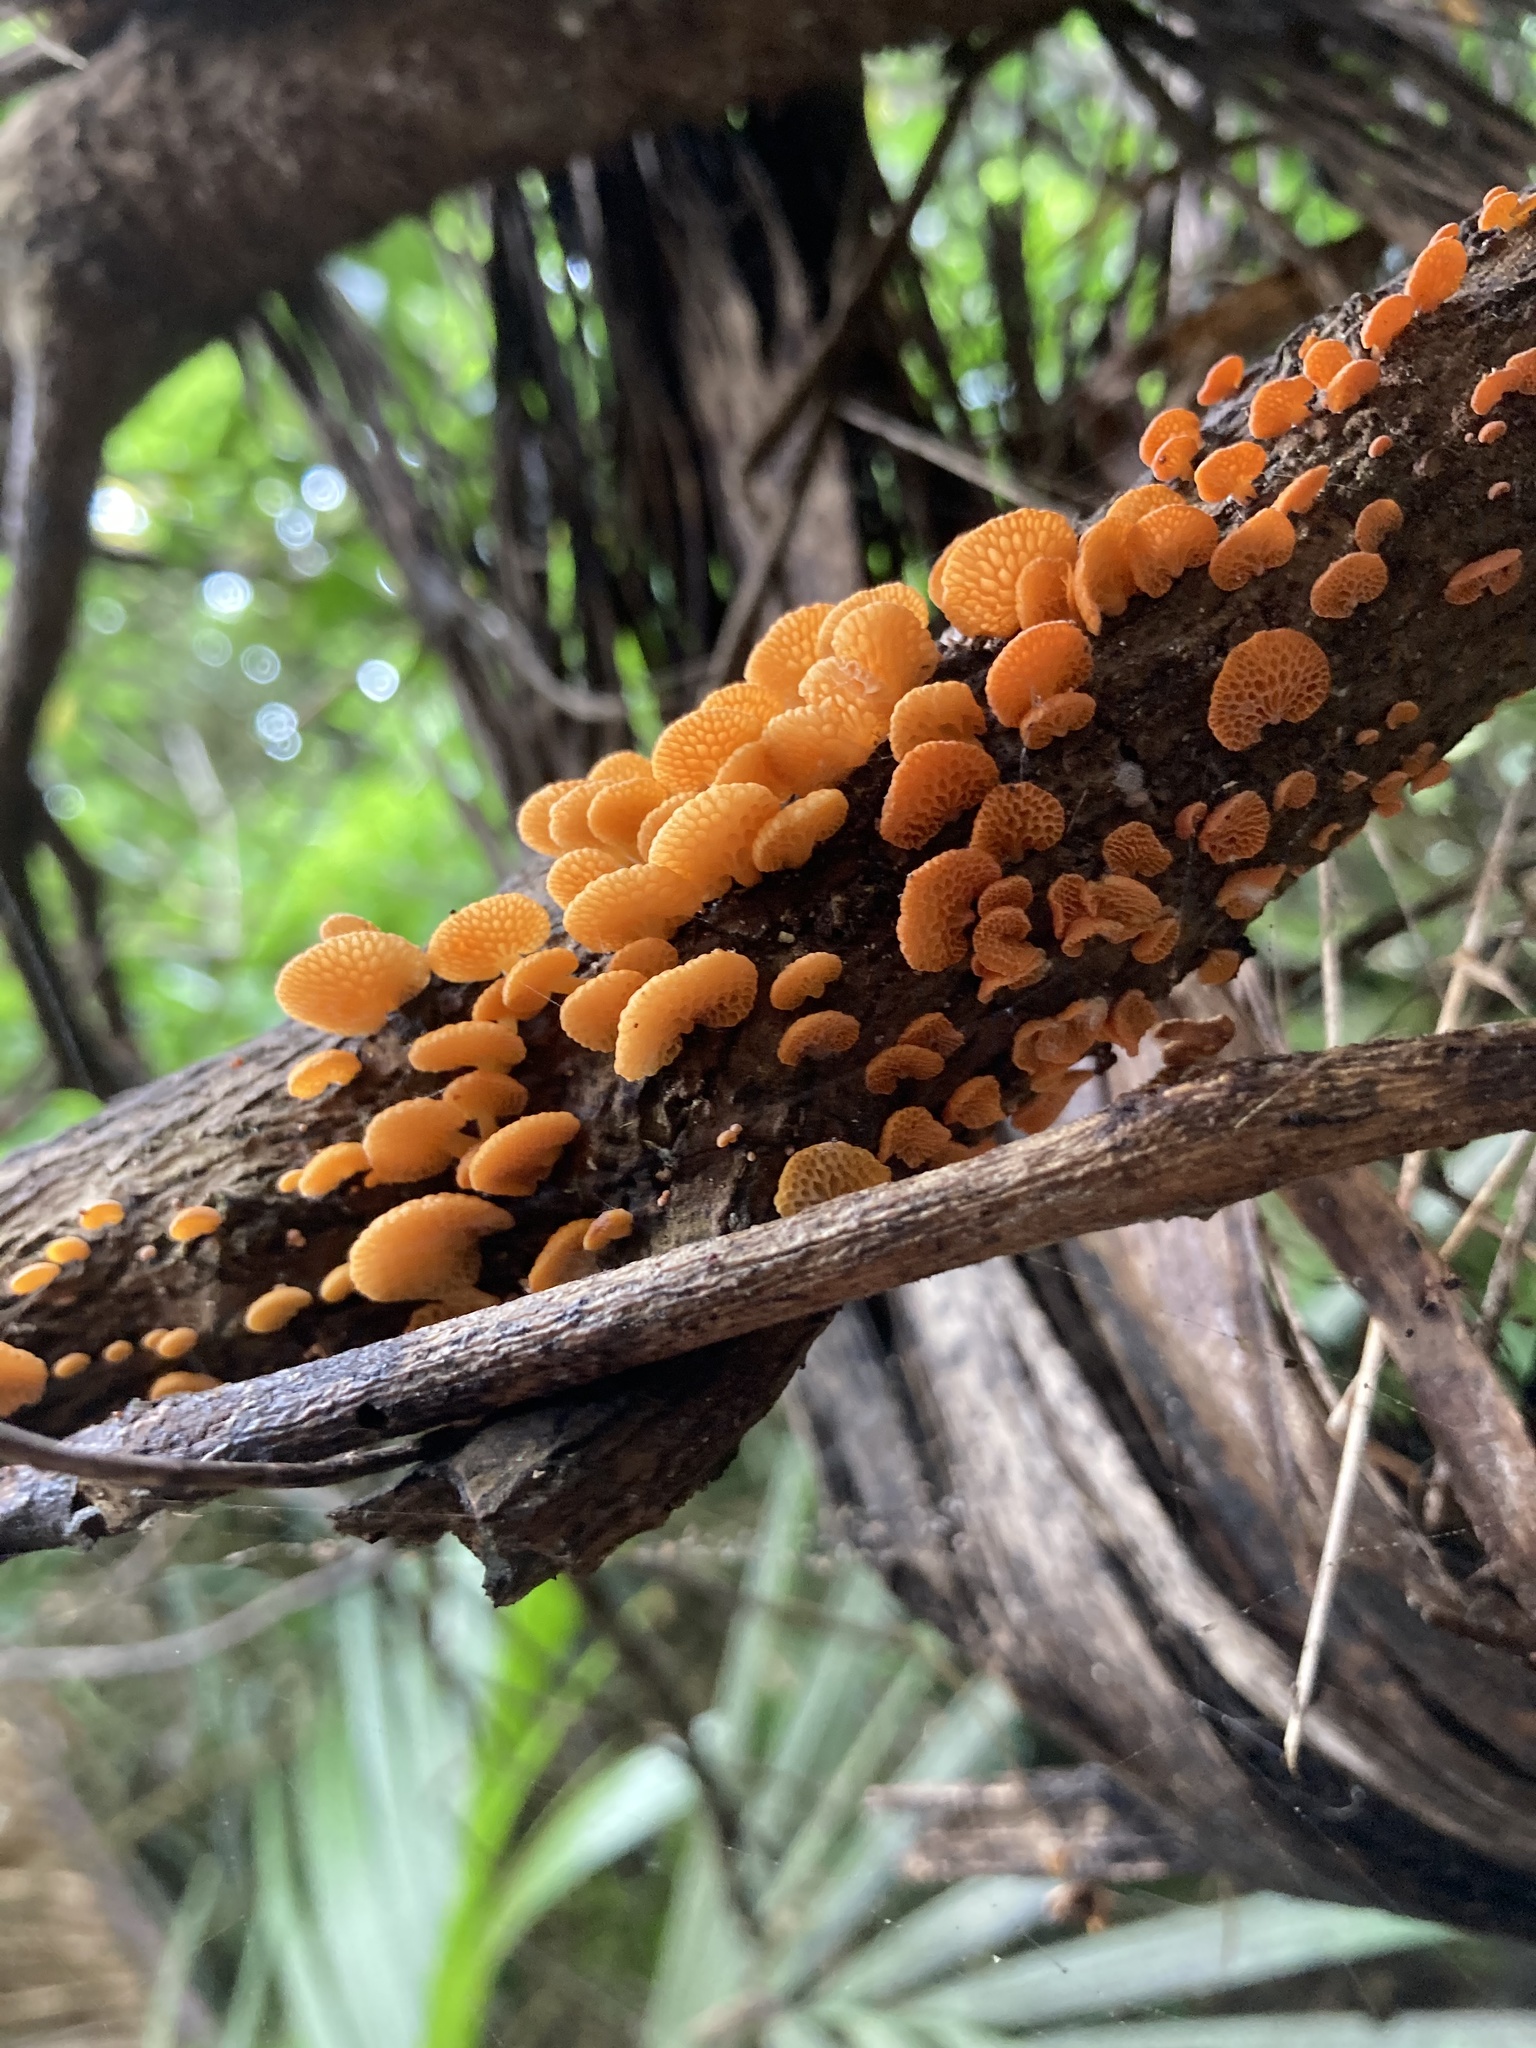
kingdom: Fungi
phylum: Basidiomycota
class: Agaricomycetes
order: Agaricales
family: Mycenaceae
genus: Favolaschia
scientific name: Favolaschia claudopus
